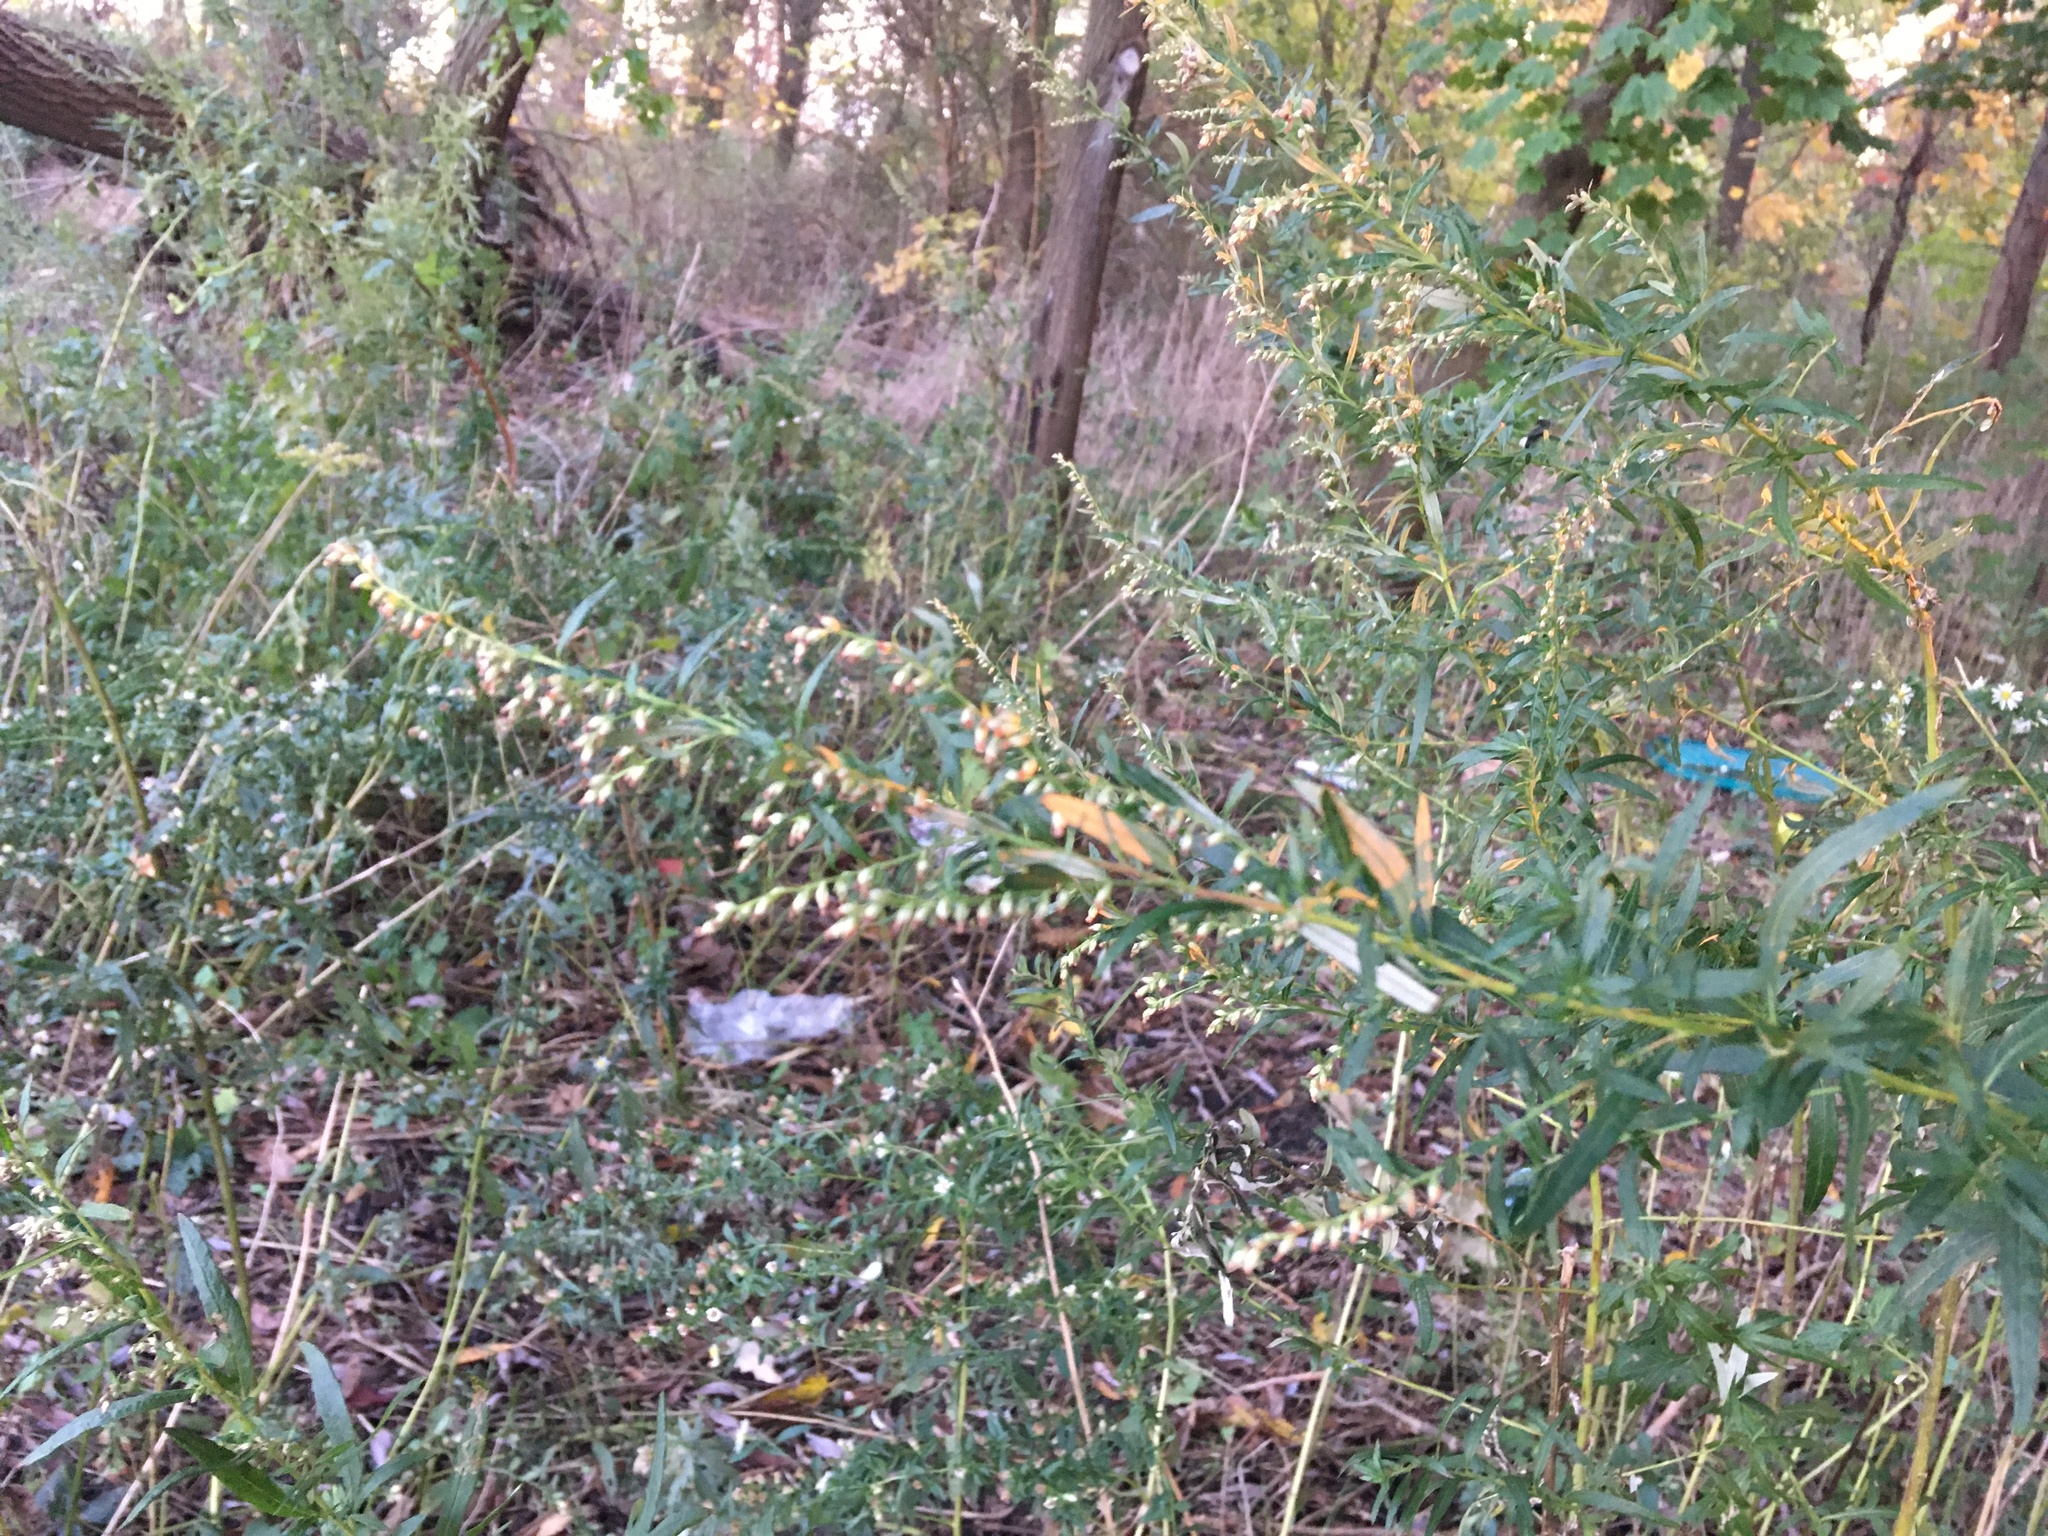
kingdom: Plantae
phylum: Tracheophyta
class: Magnoliopsida
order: Asterales
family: Asteraceae
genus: Artemisia
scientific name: Artemisia vulgaris
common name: Mugwort
